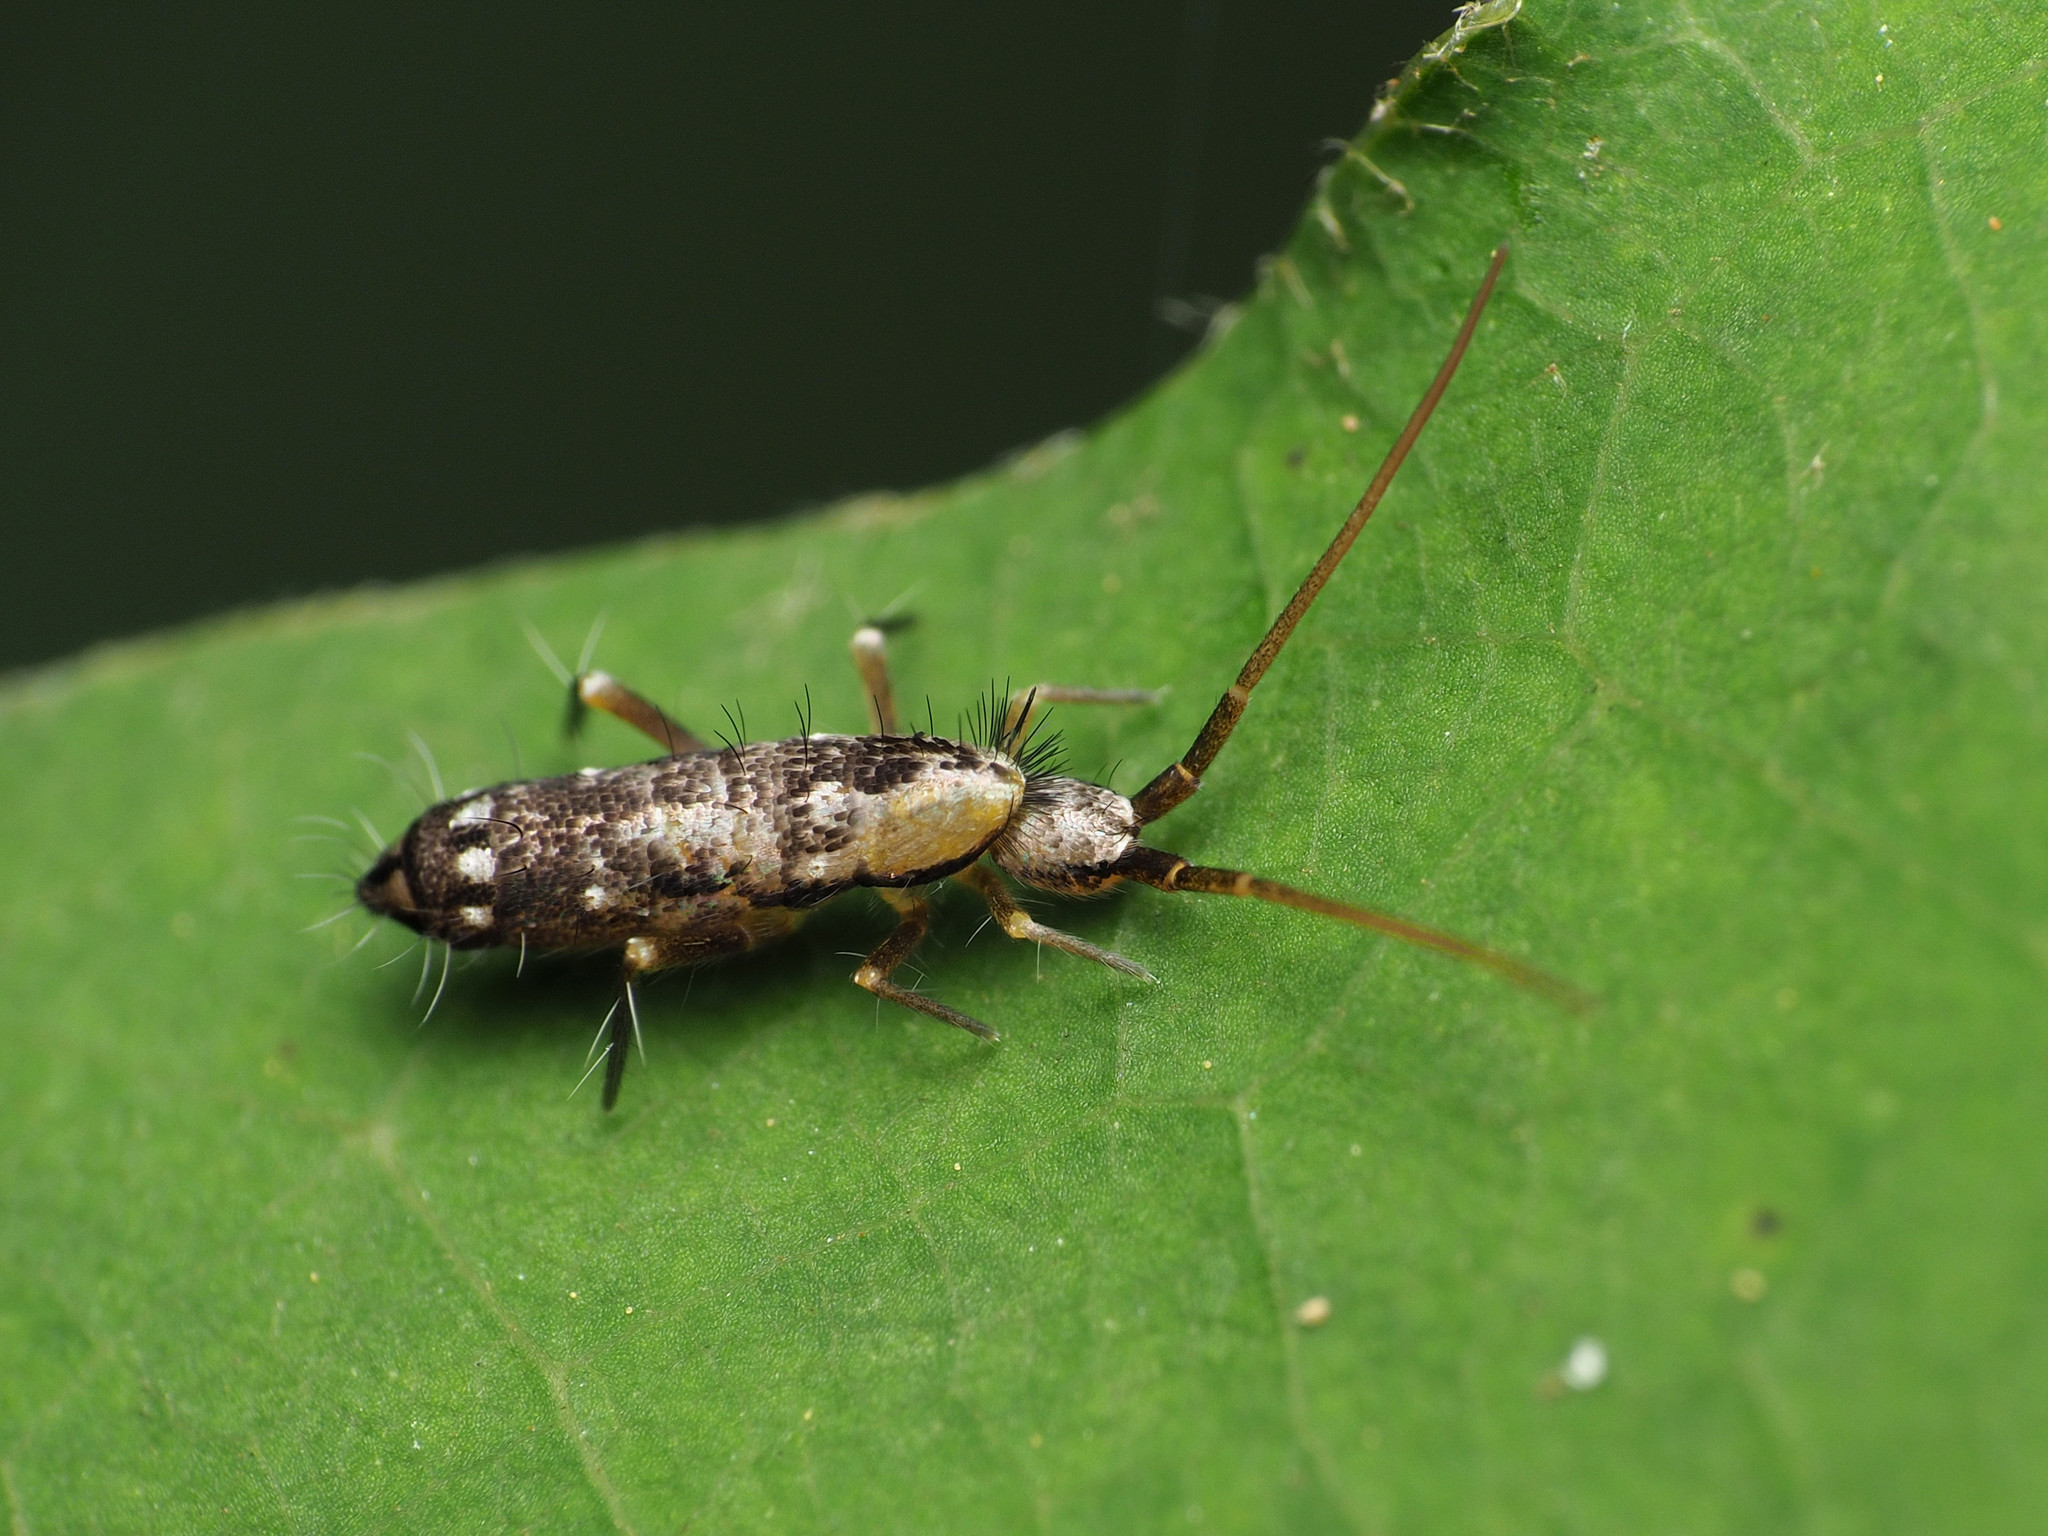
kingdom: Animalia
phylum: Arthropoda
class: Collembola
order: Entomobryomorpha
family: Tomoceridae
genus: Pogonognathellus
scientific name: Pogonognathellus elongatus
